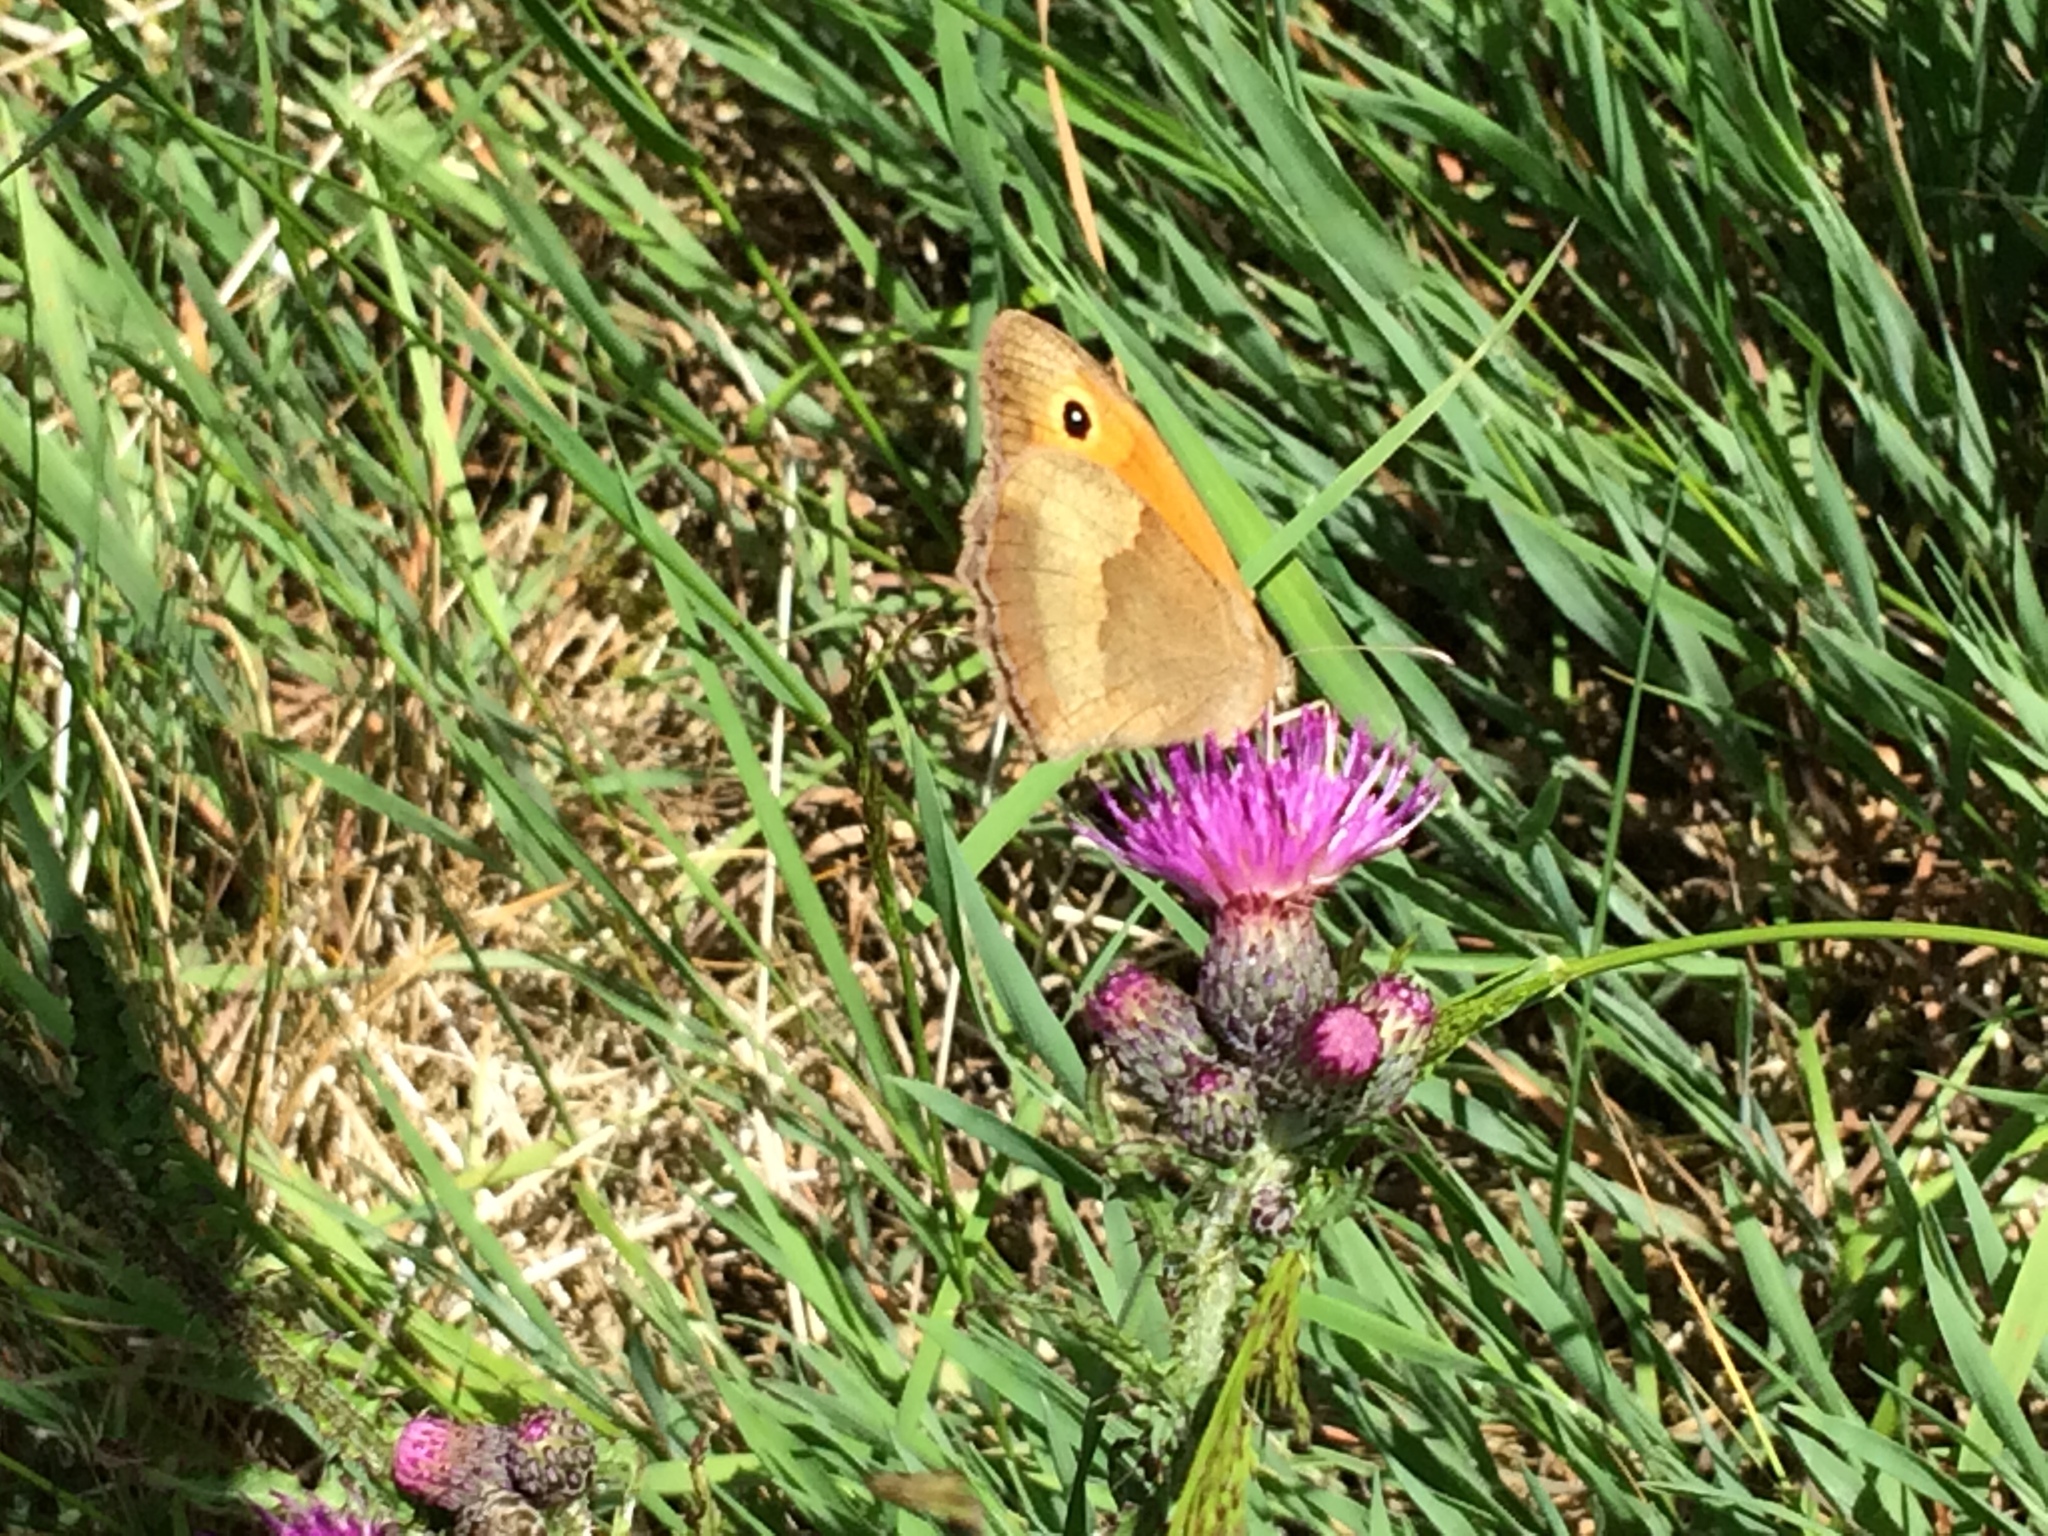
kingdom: Animalia
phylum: Arthropoda
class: Insecta
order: Lepidoptera
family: Nymphalidae
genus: Maniola
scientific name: Maniola jurtina
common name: Meadow brown
